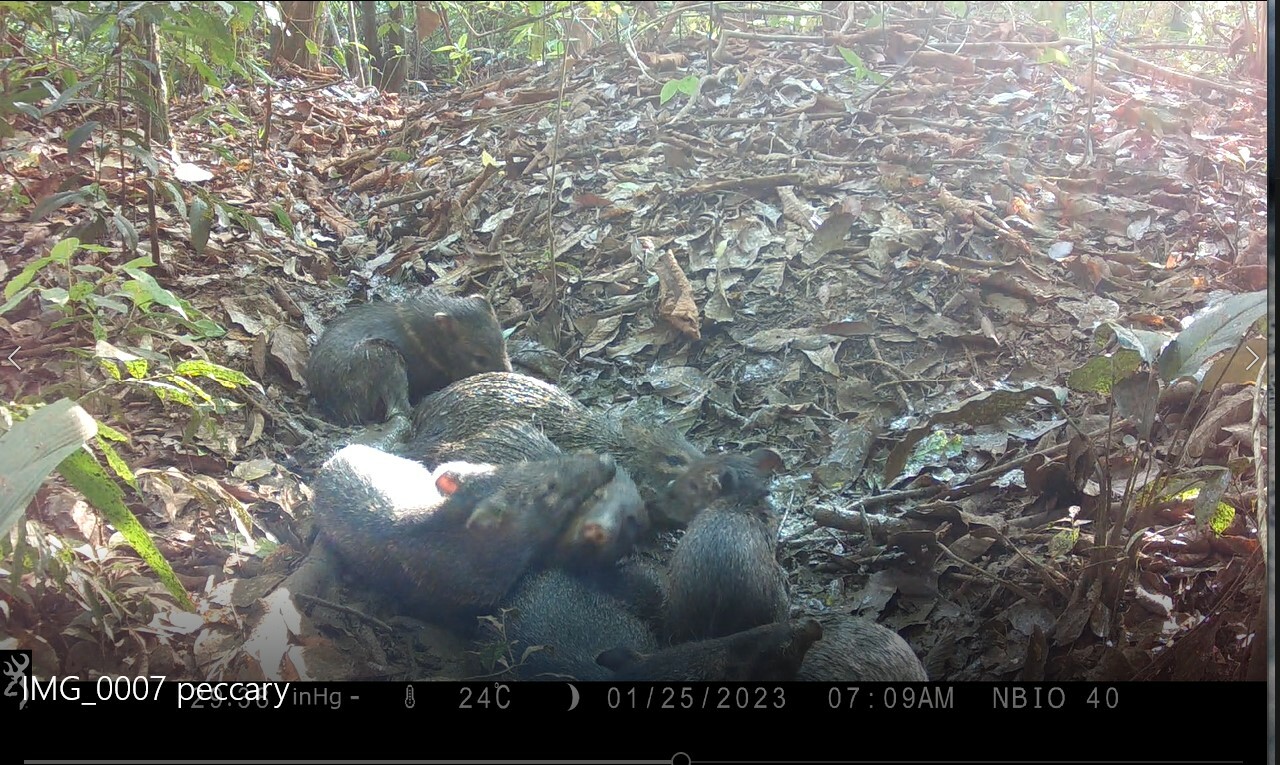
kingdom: Animalia
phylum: Chordata
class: Mammalia
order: Artiodactyla
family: Tayassuidae
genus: Pecari
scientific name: Pecari tajacu
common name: Collared peccary
